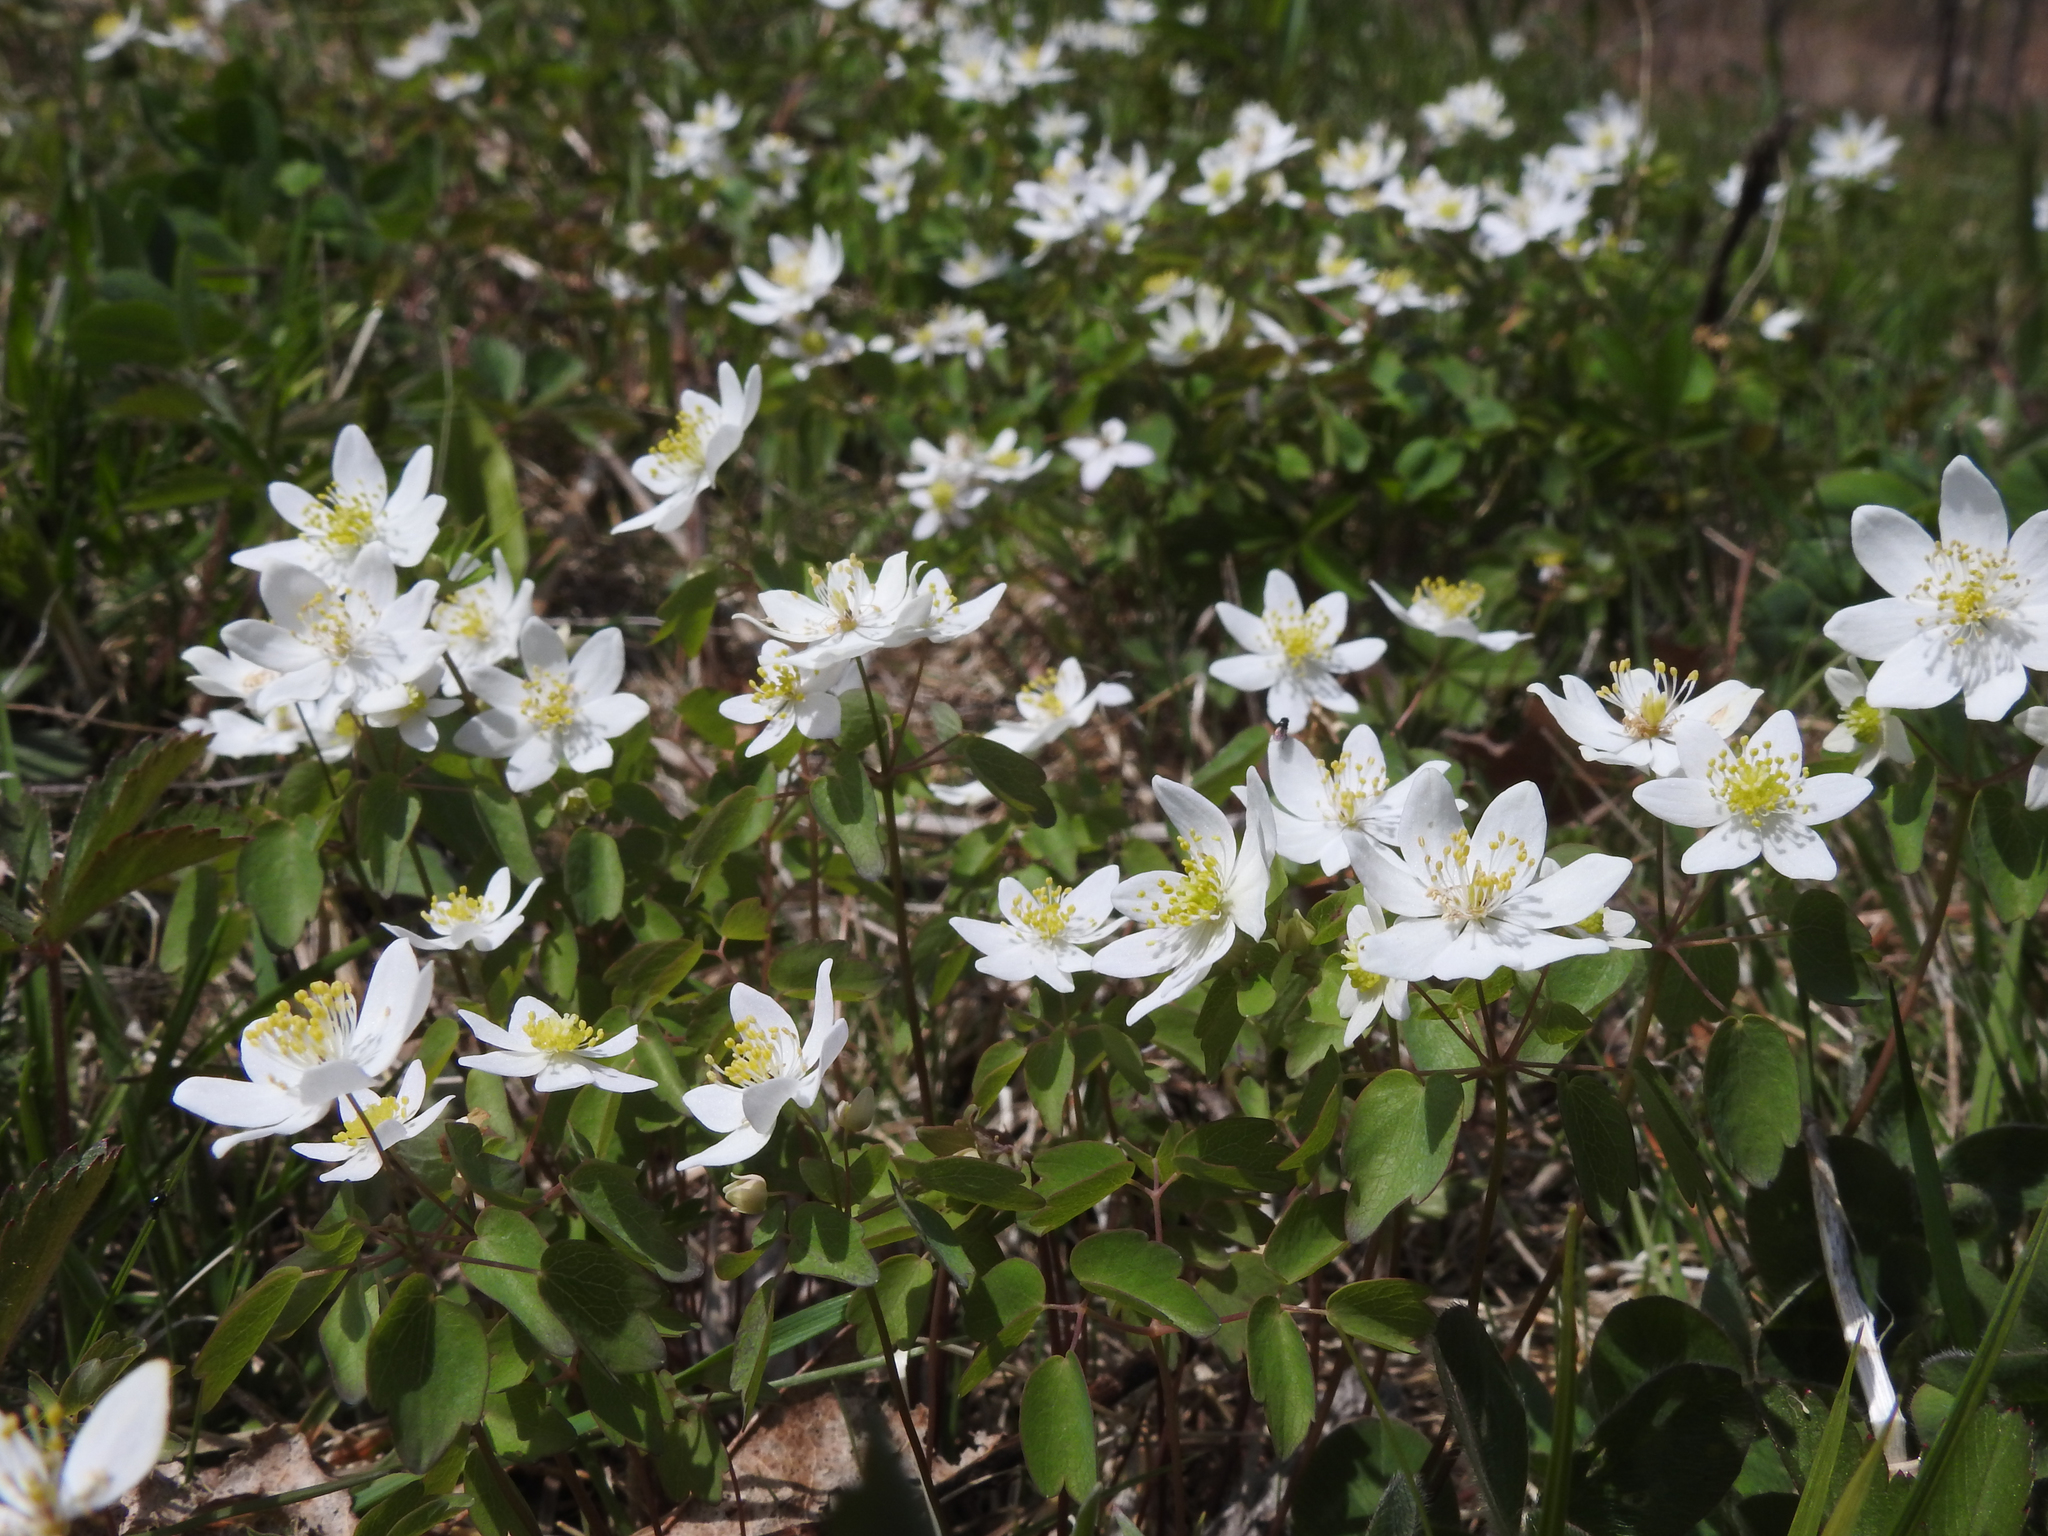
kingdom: Plantae
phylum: Tracheophyta
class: Magnoliopsida
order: Ranunculales
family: Ranunculaceae
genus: Thalictrum
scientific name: Thalictrum thalictroides
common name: Rue-anemone
